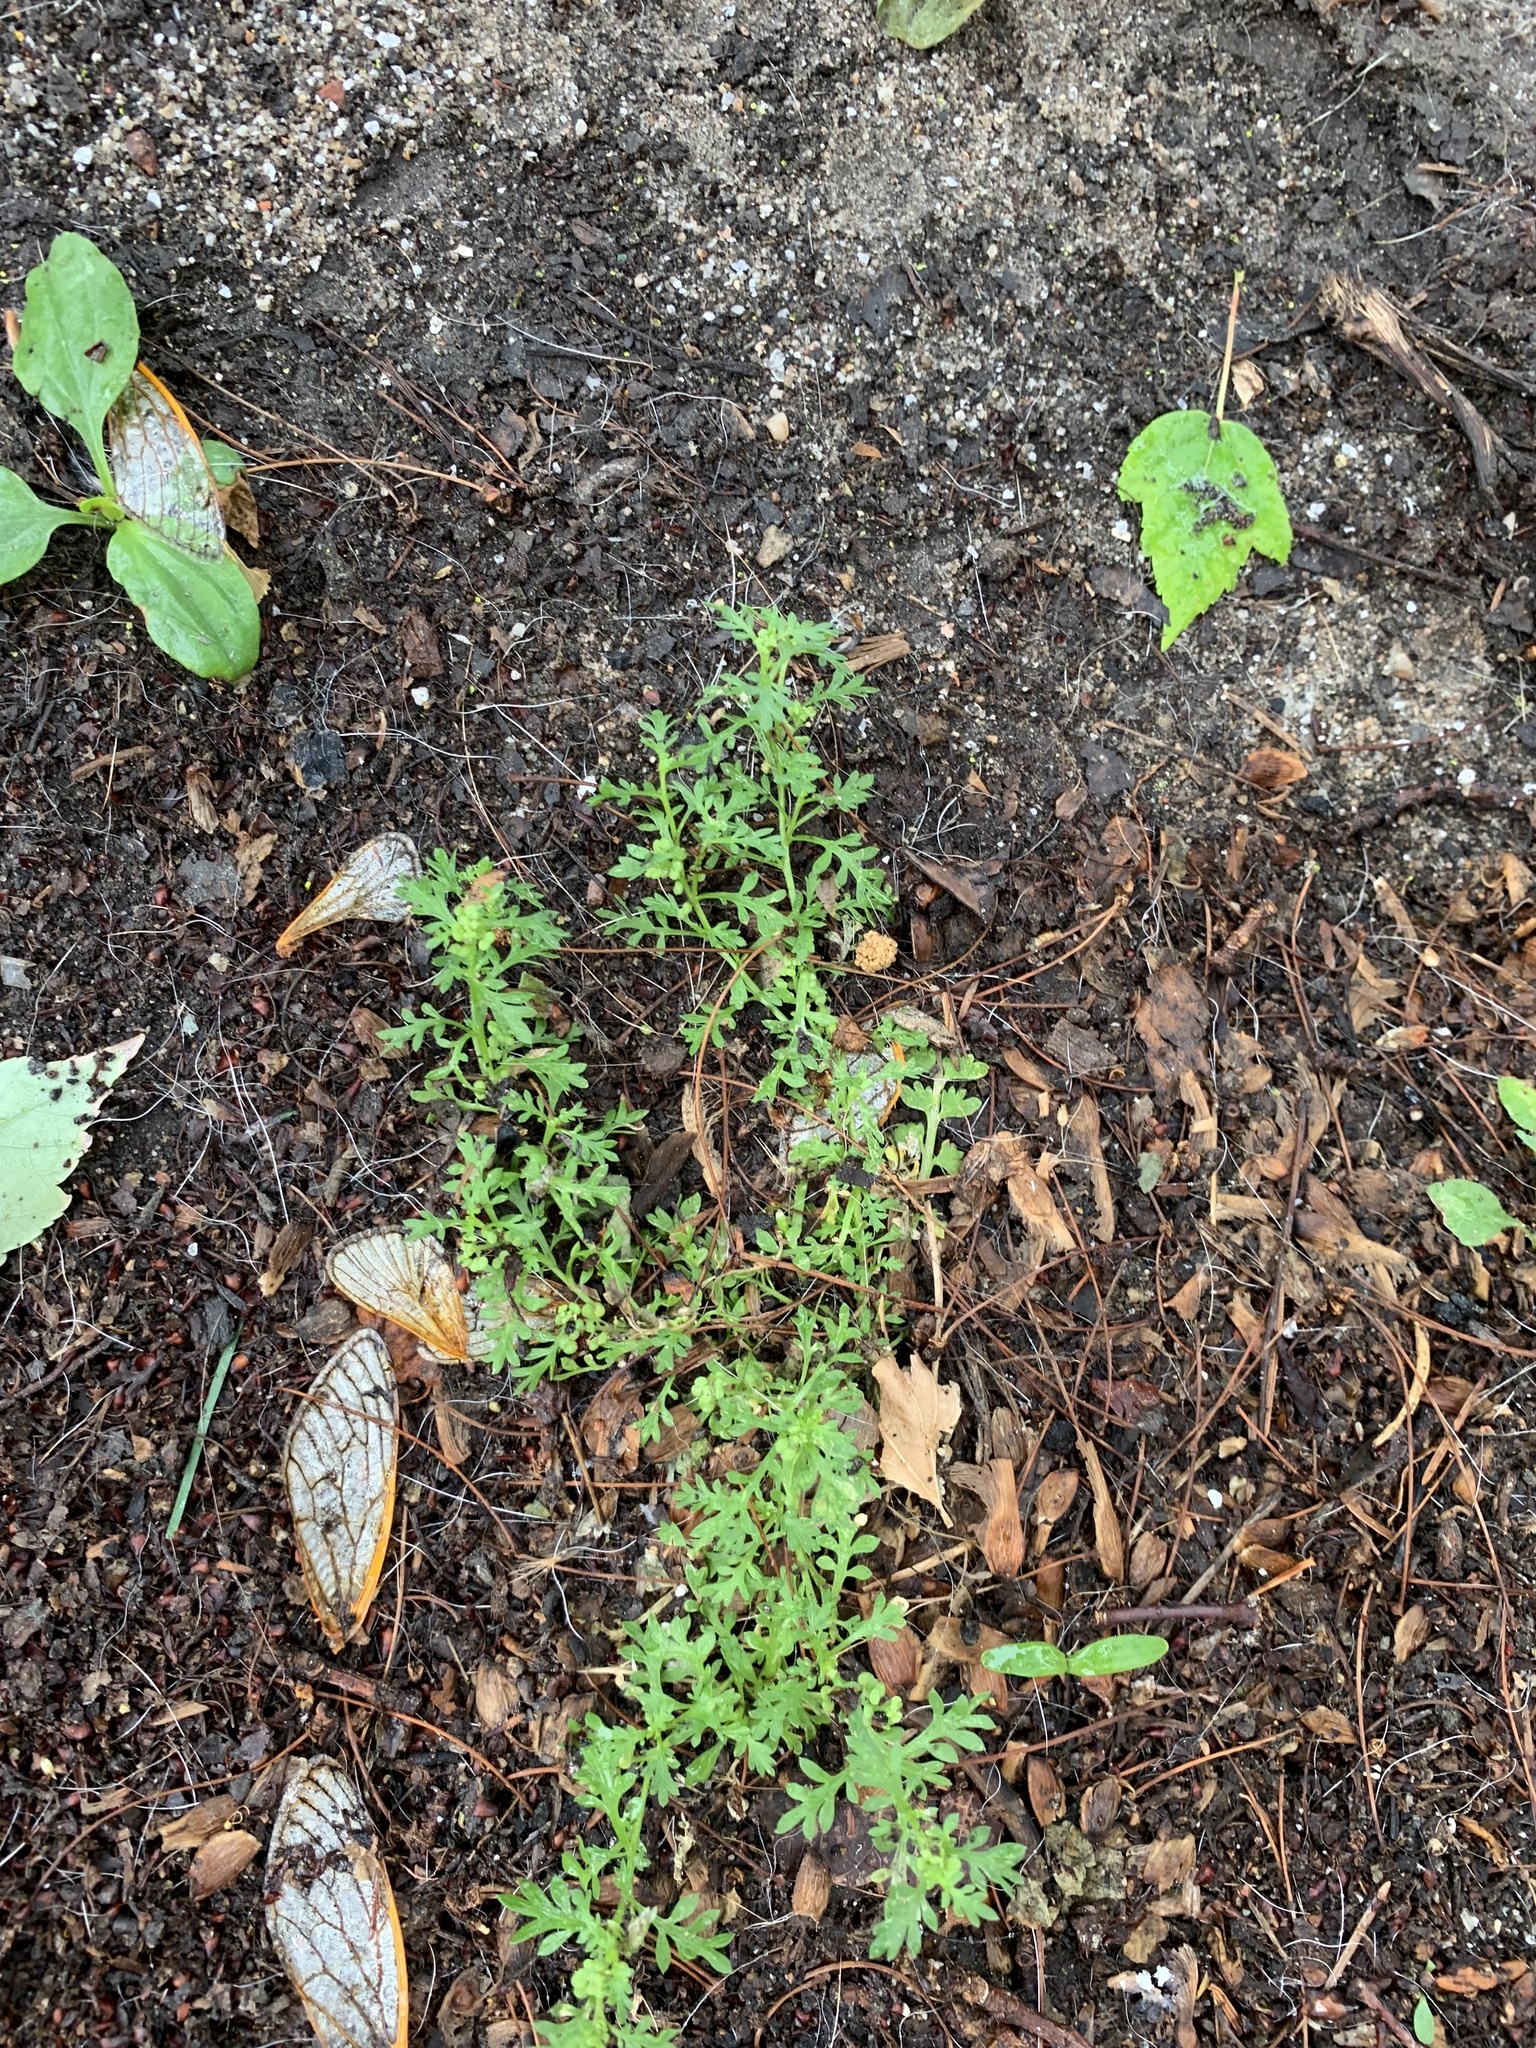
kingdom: Plantae
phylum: Tracheophyta
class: Magnoliopsida
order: Brassicales
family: Brassicaceae
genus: Lepidium
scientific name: Lepidium didymum
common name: Lesser swinecress
